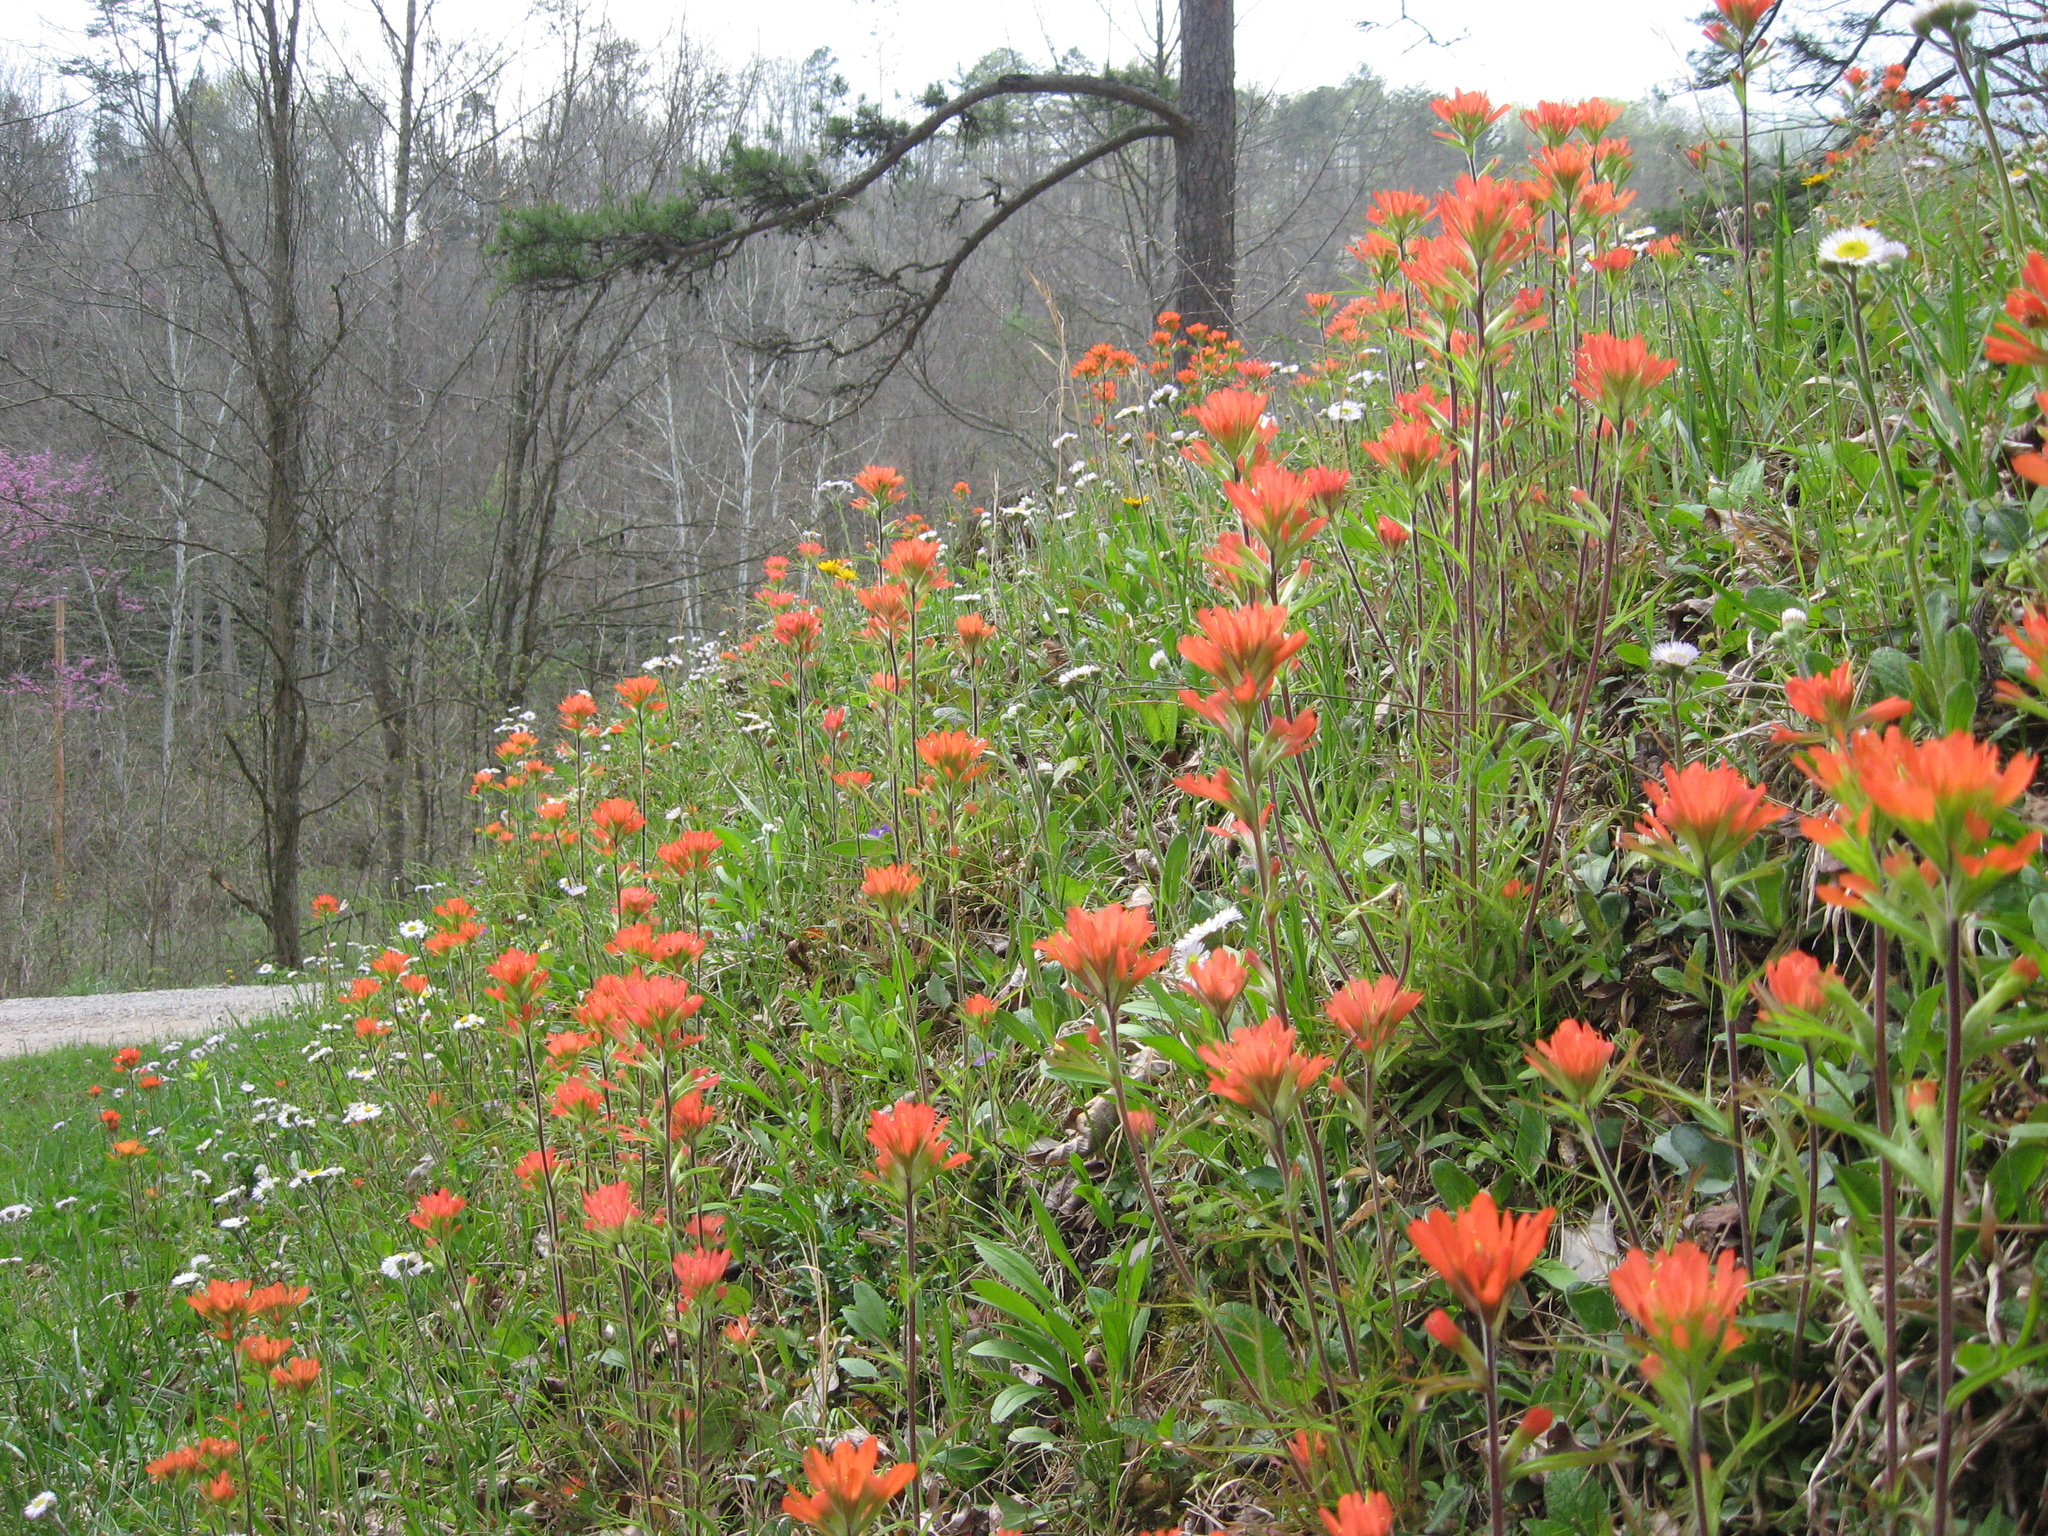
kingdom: Plantae
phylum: Tracheophyta
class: Magnoliopsida
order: Lamiales
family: Orobanchaceae
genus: Castilleja
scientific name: Castilleja coccinea
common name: Scarlet paintbrush
